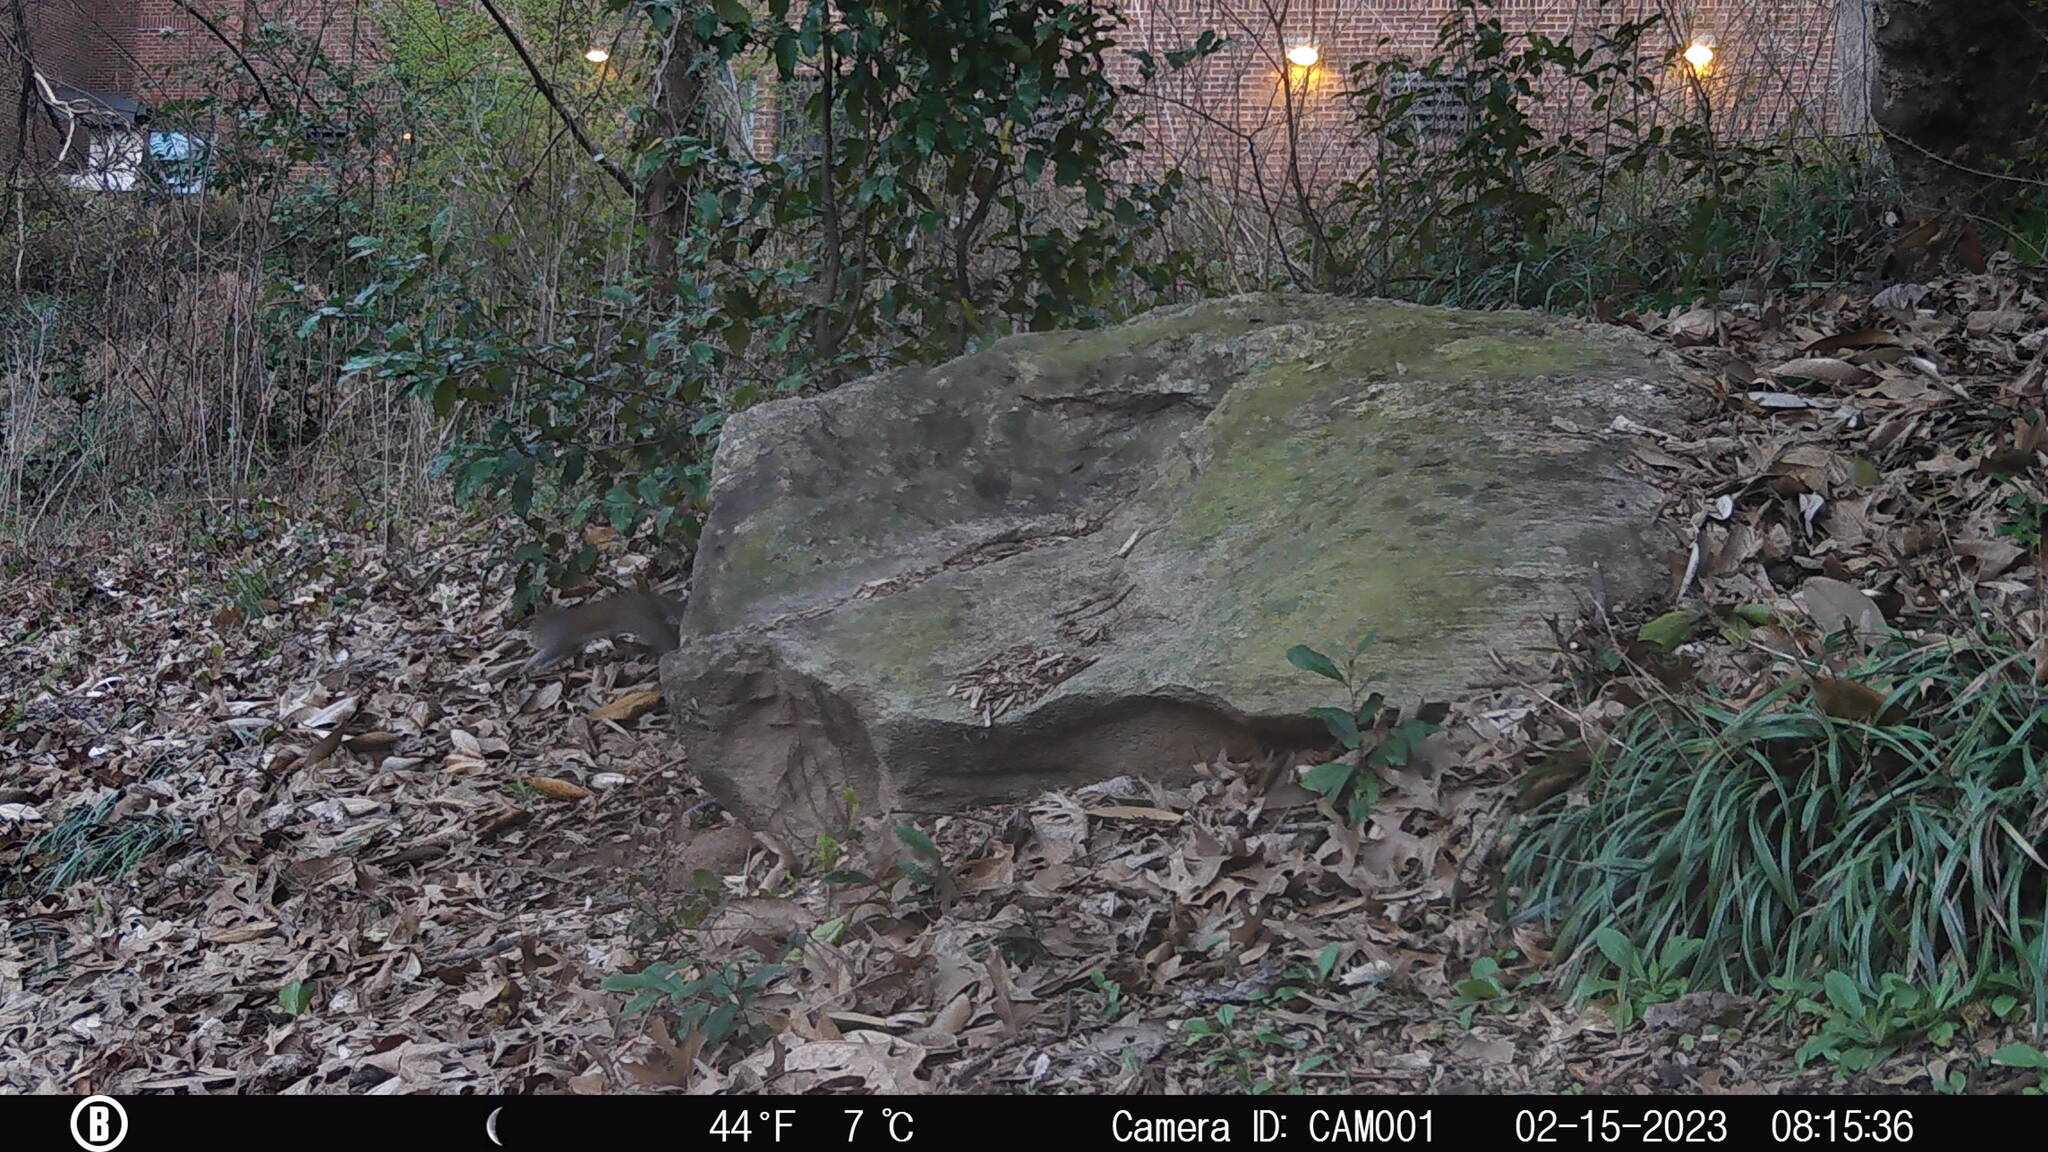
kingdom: Animalia
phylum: Chordata
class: Mammalia
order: Rodentia
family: Sciuridae
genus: Sciurus
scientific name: Sciurus carolinensis
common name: Eastern gray squirrel
